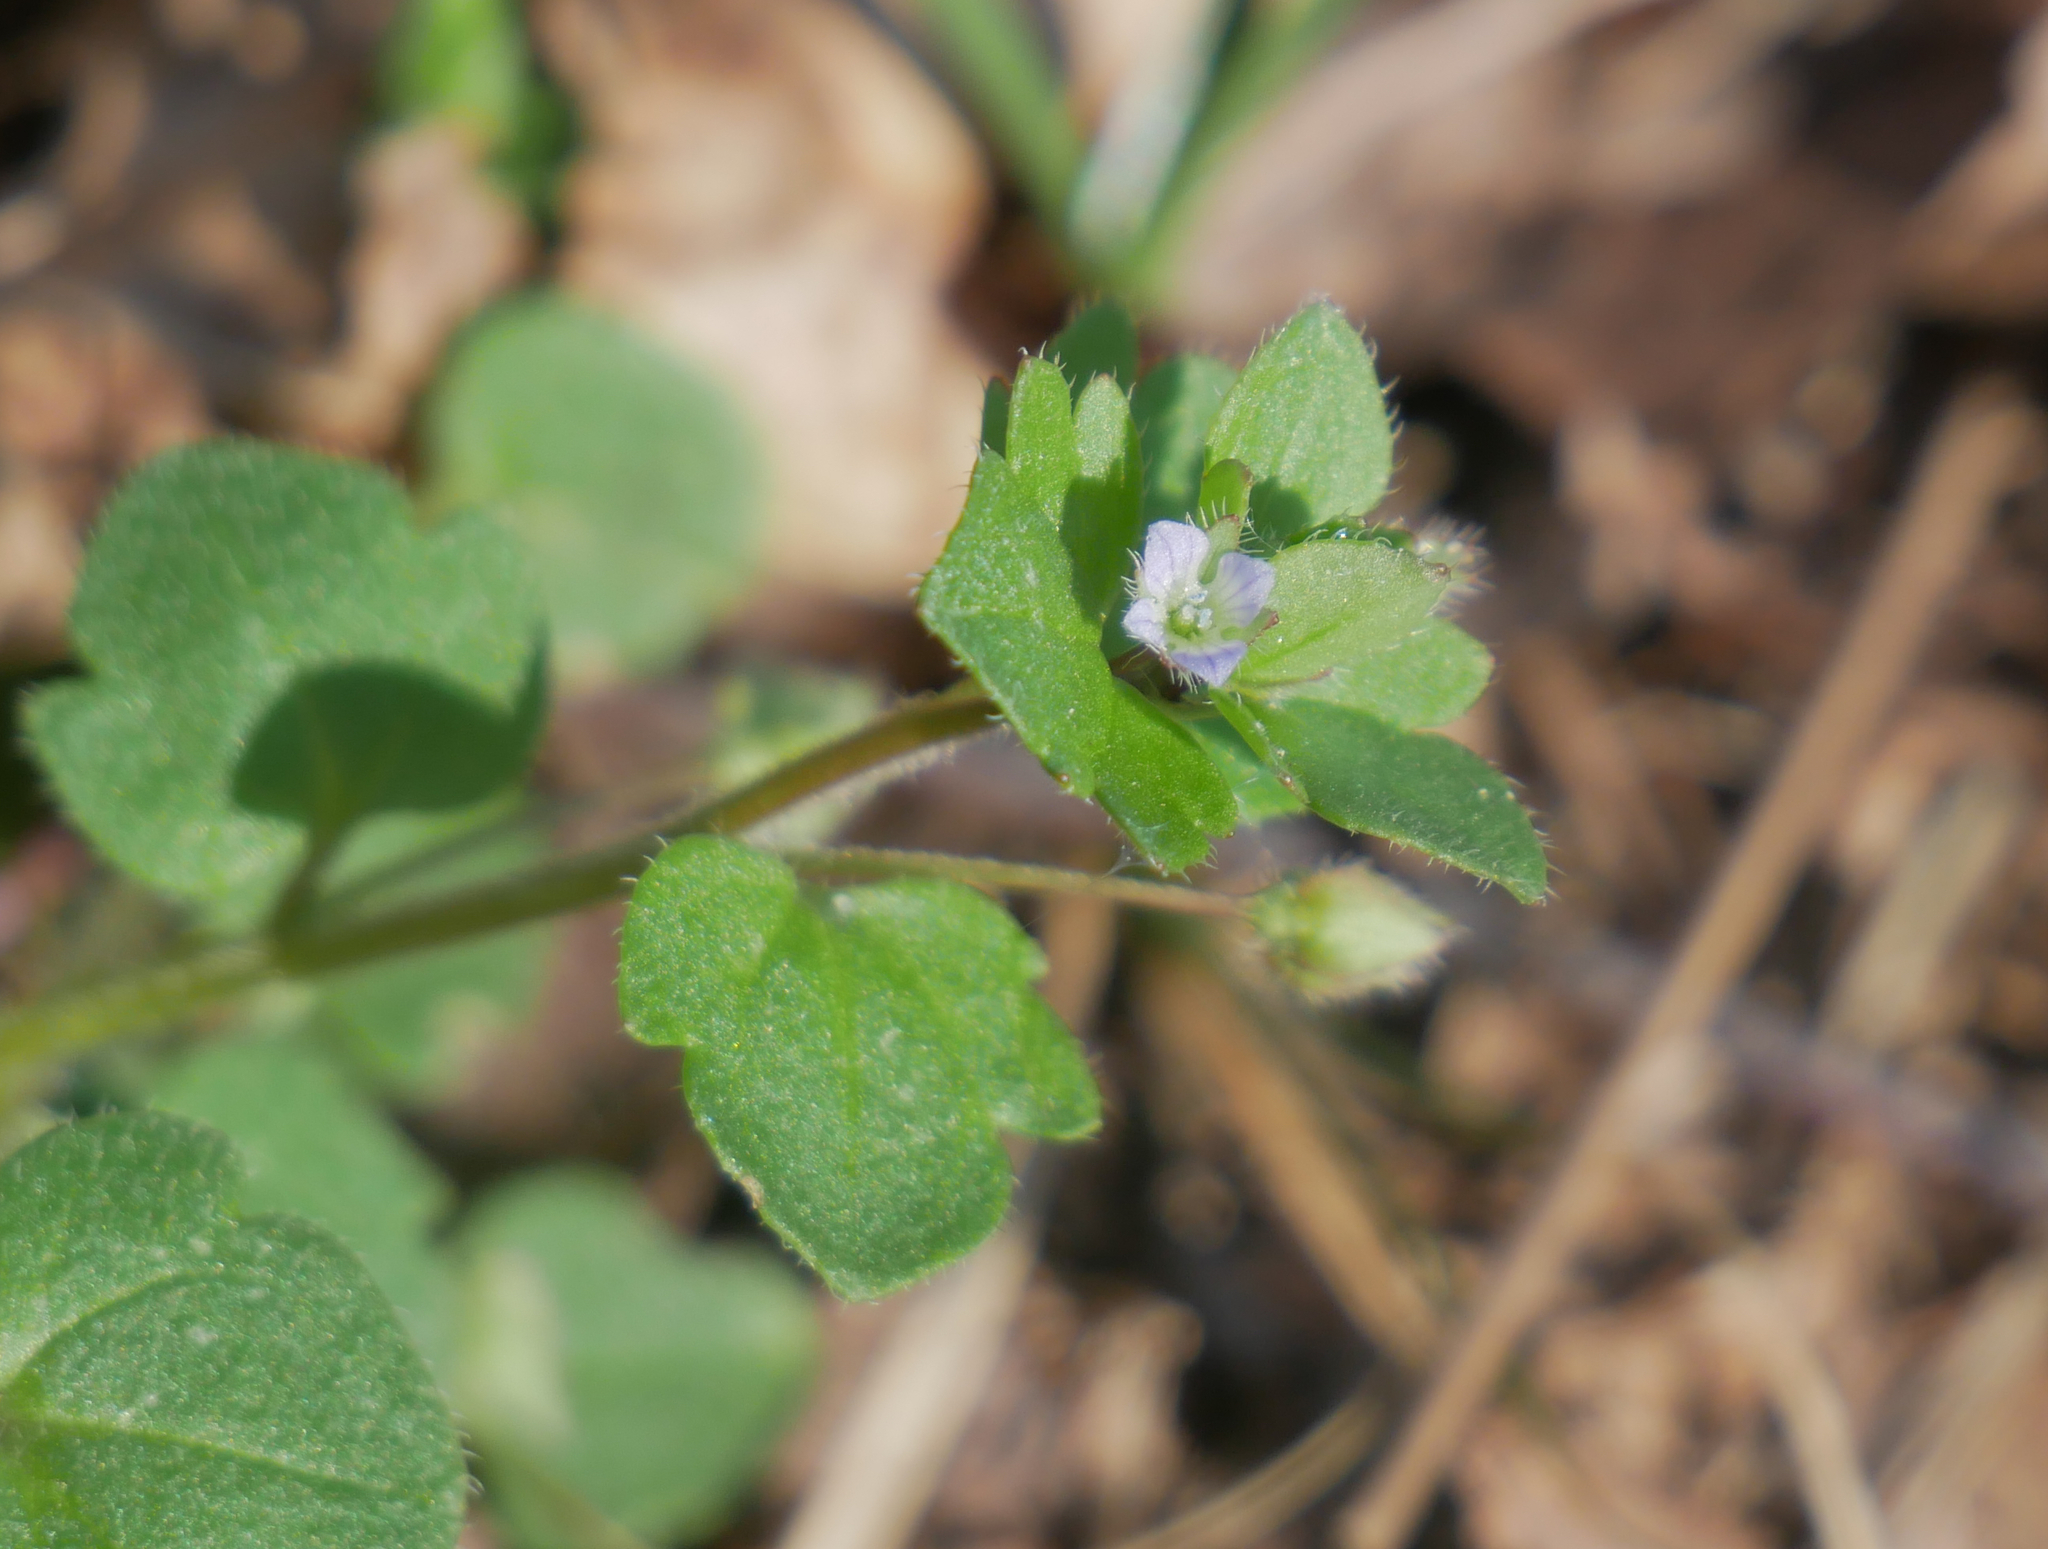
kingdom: Plantae
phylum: Tracheophyta
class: Magnoliopsida
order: Lamiales
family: Plantaginaceae
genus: Veronica
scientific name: Veronica sublobata
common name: False ivy-leaved speedwell
